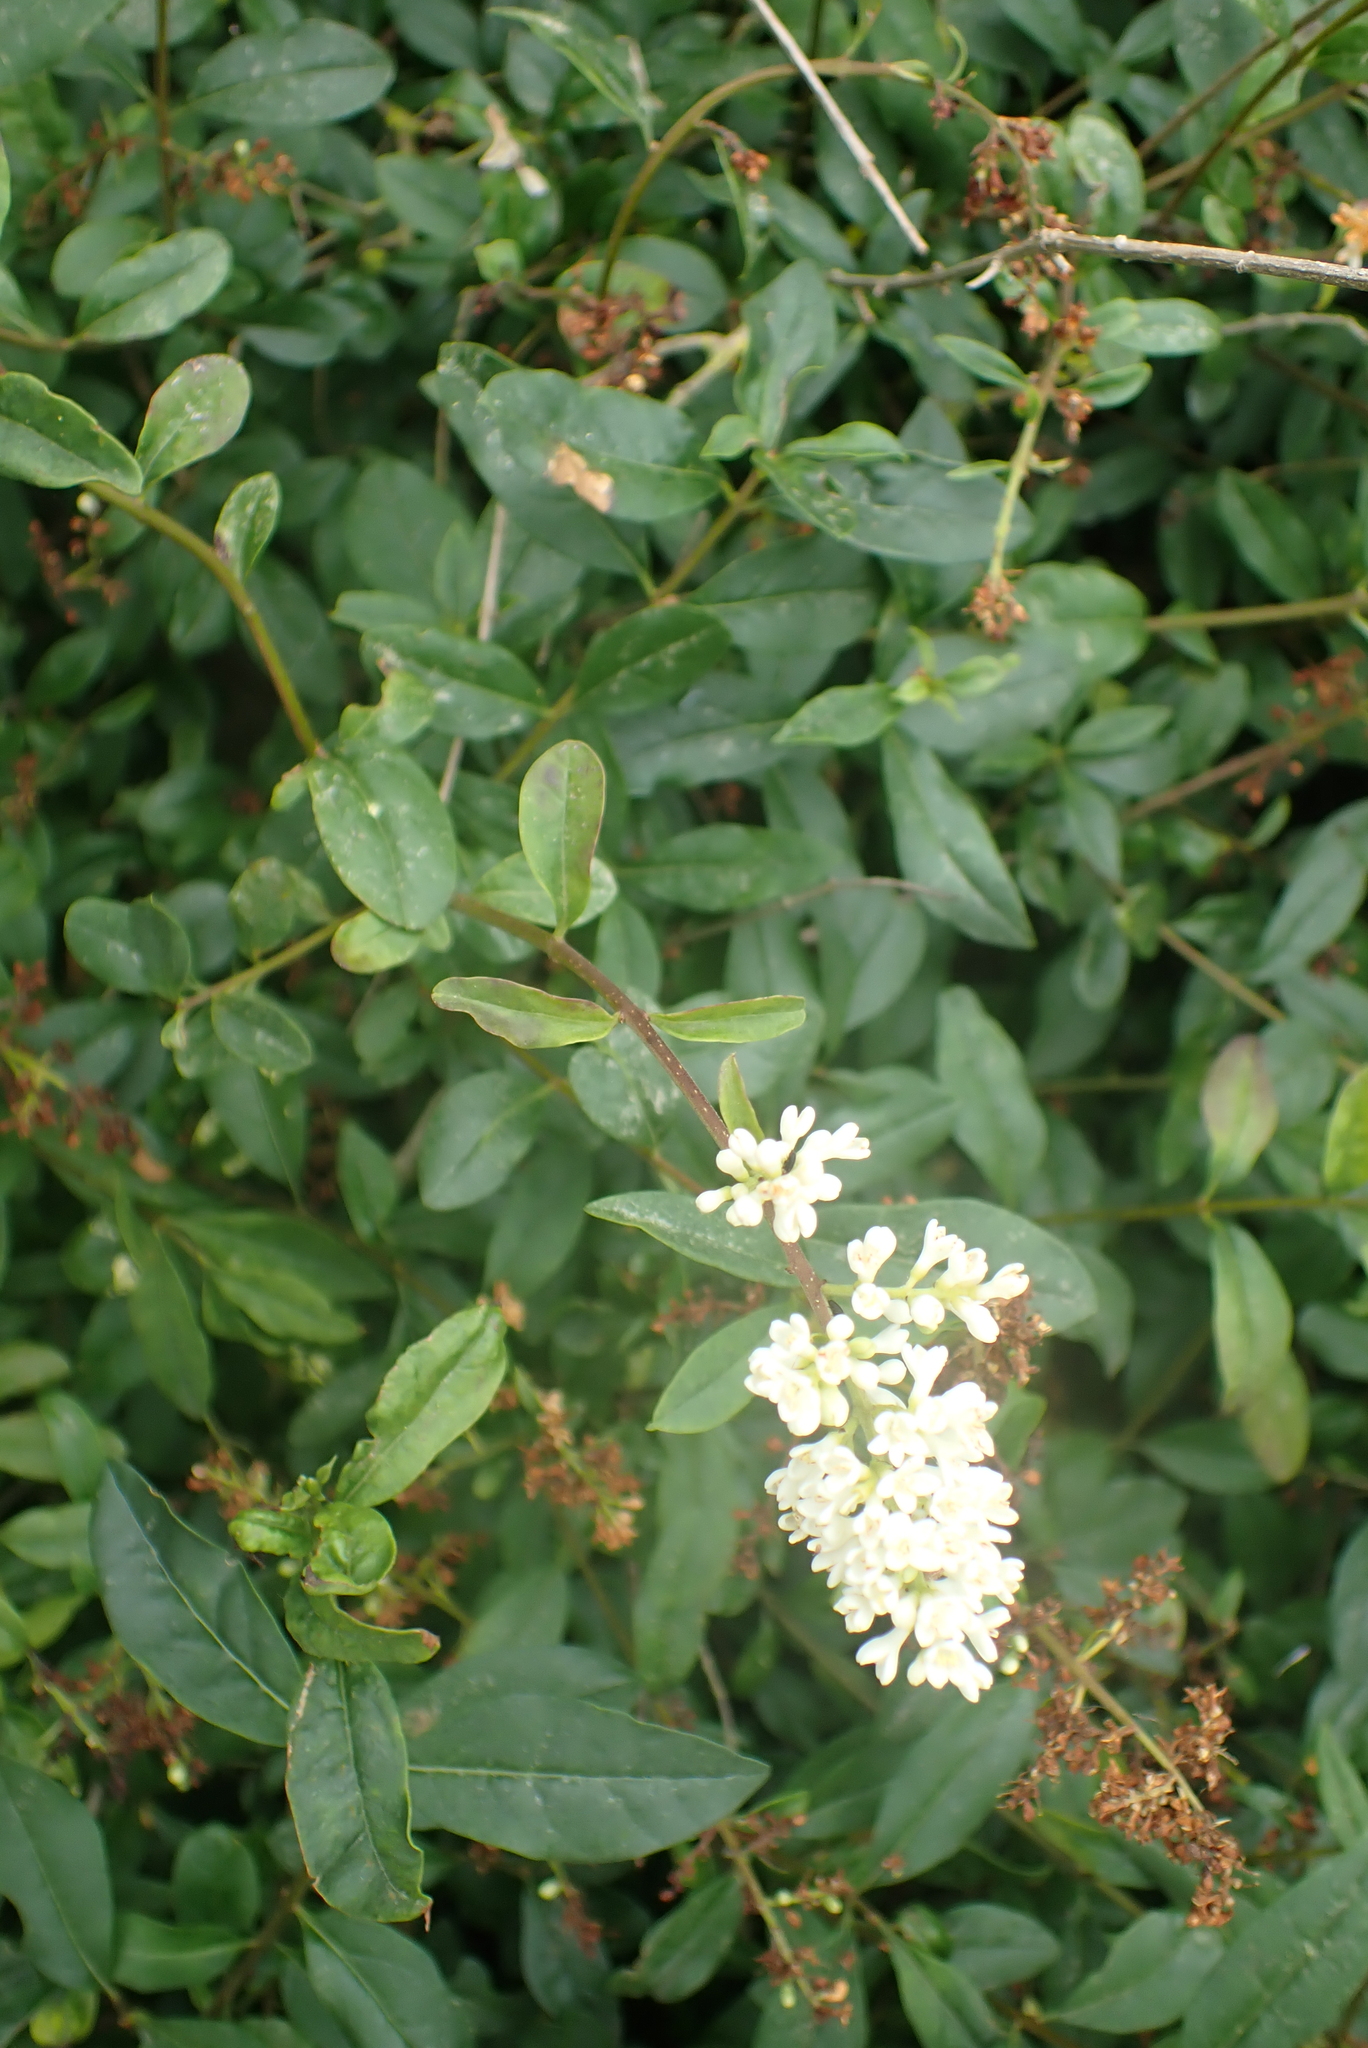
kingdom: Plantae
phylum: Tracheophyta
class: Magnoliopsida
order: Lamiales
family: Oleaceae
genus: Ligustrum
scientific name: Ligustrum vulgare
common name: Wild privet
